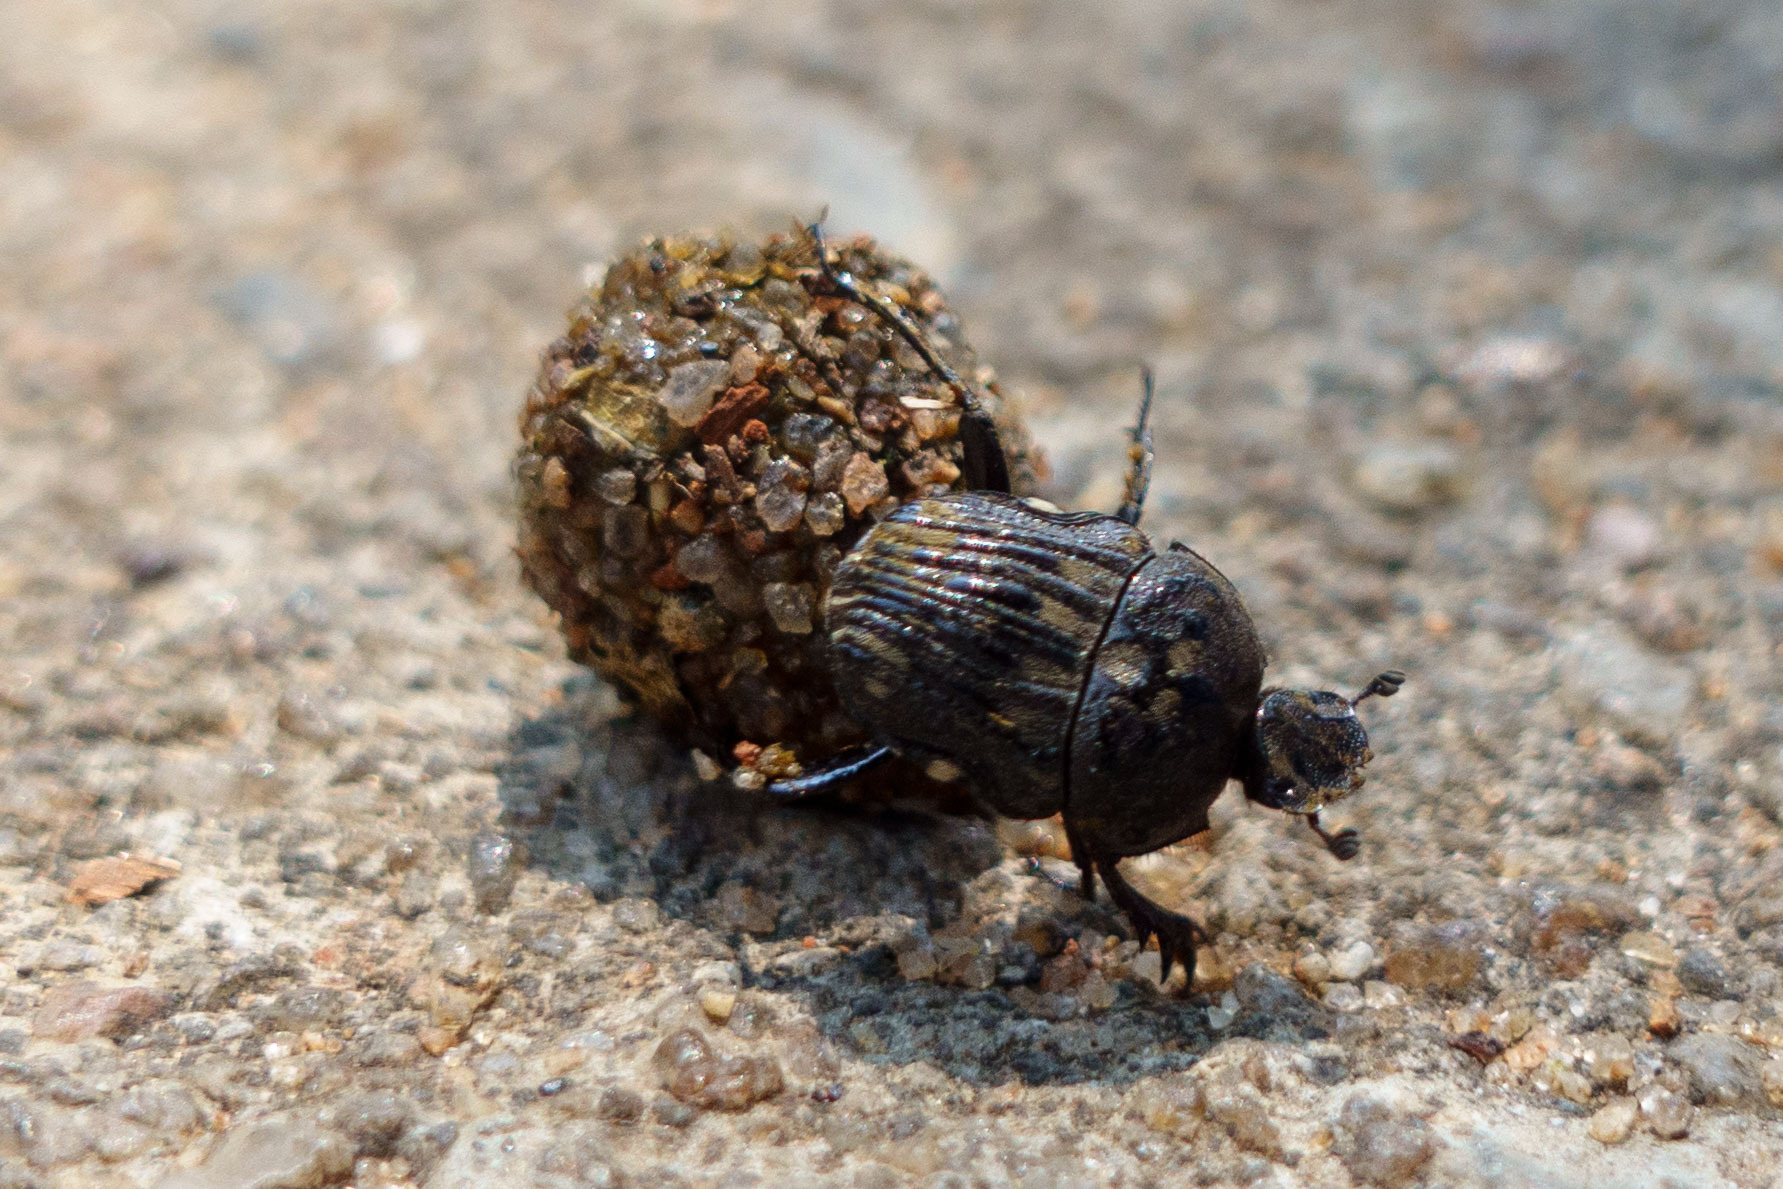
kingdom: Animalia
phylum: Arthropoda
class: Insecta
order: Coleoptera
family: Scarabaeidae
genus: Gymnopleurus
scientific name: Gymnopleurus koenigii
